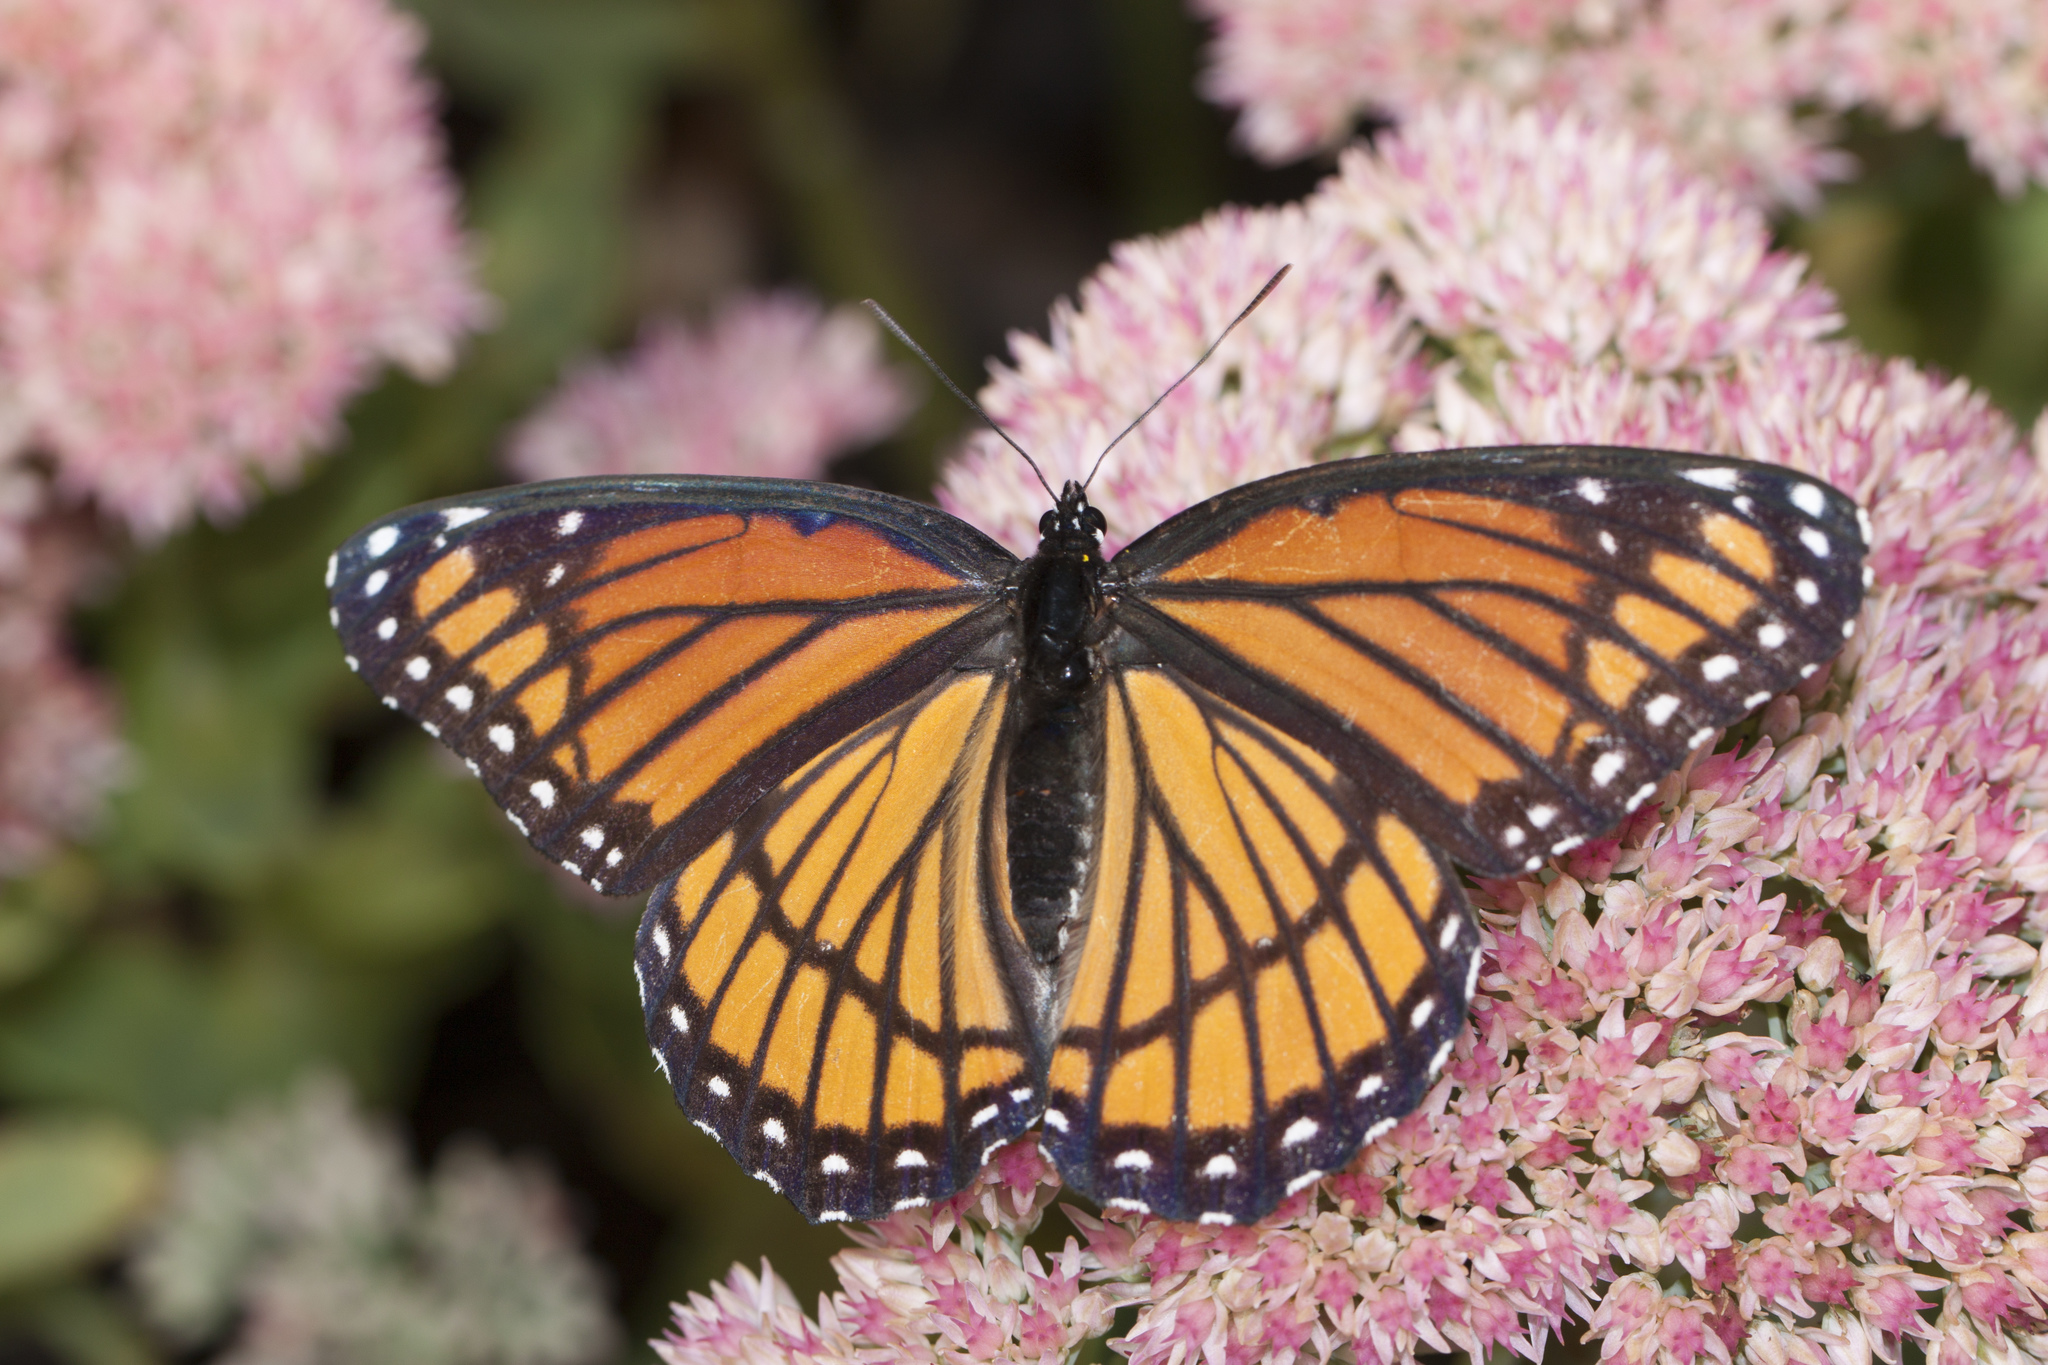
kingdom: Animalia
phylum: Arthropoda
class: Insecta
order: Lepidoptera
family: Nymphalidae
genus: Limenitis
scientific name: Limenitis archippus
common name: Viceroy
